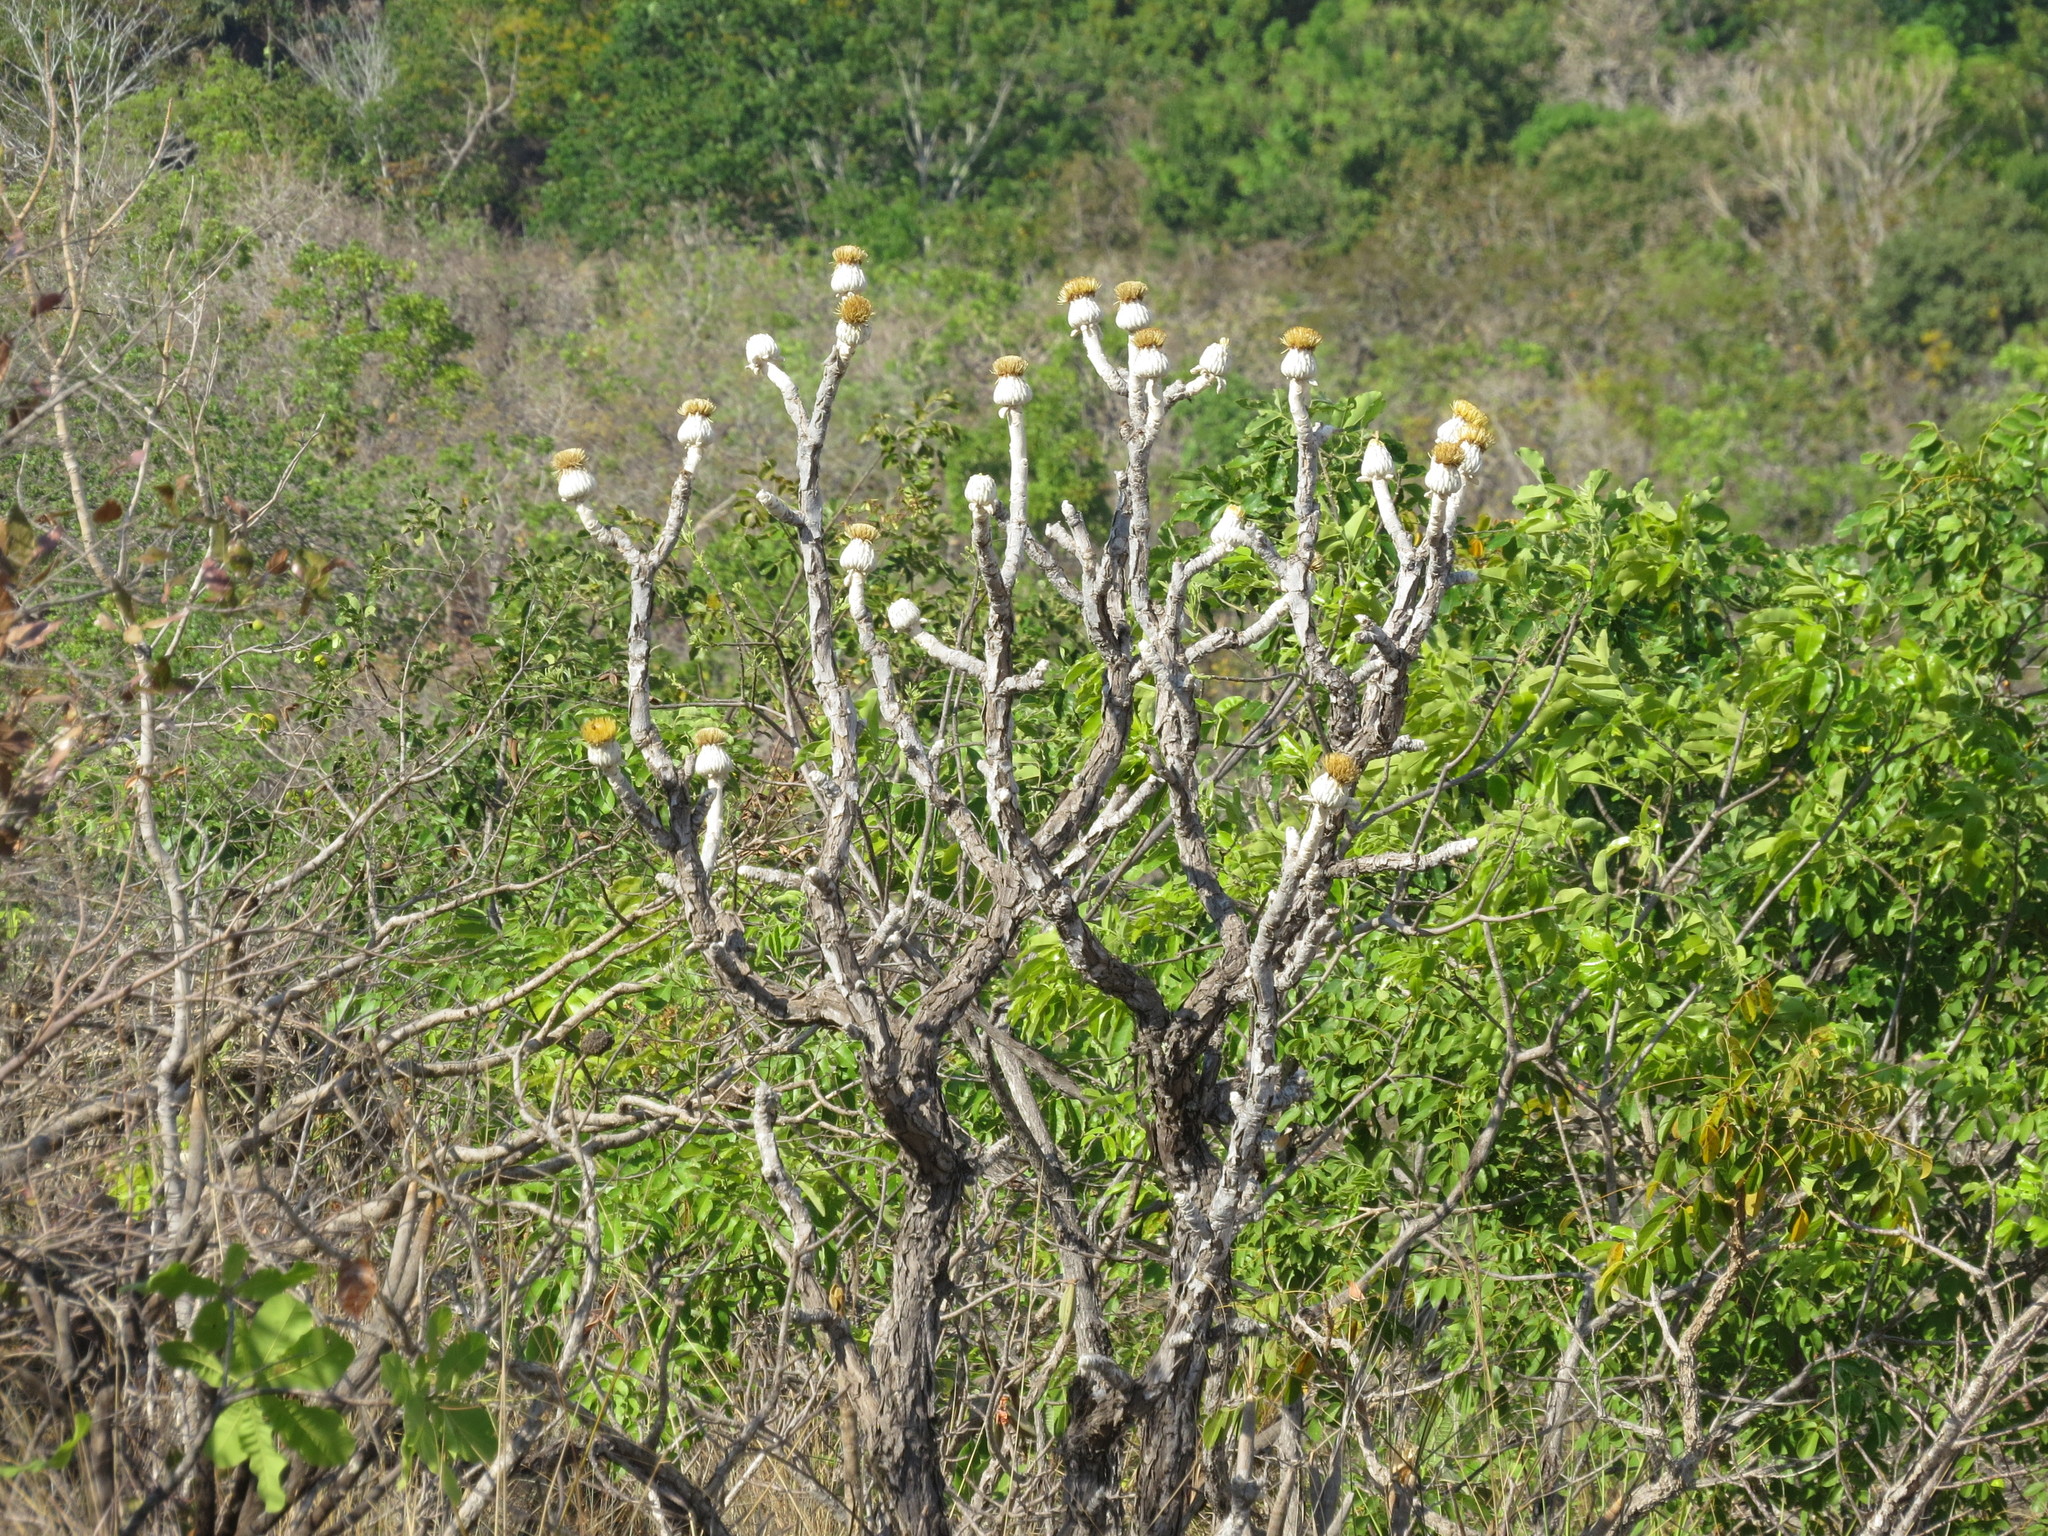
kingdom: Plantae
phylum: Tracheophyta
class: Magnoliopsida
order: Asterales
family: Asteraceae
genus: Wunderlichia
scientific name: Wunderlichia mirabilis
